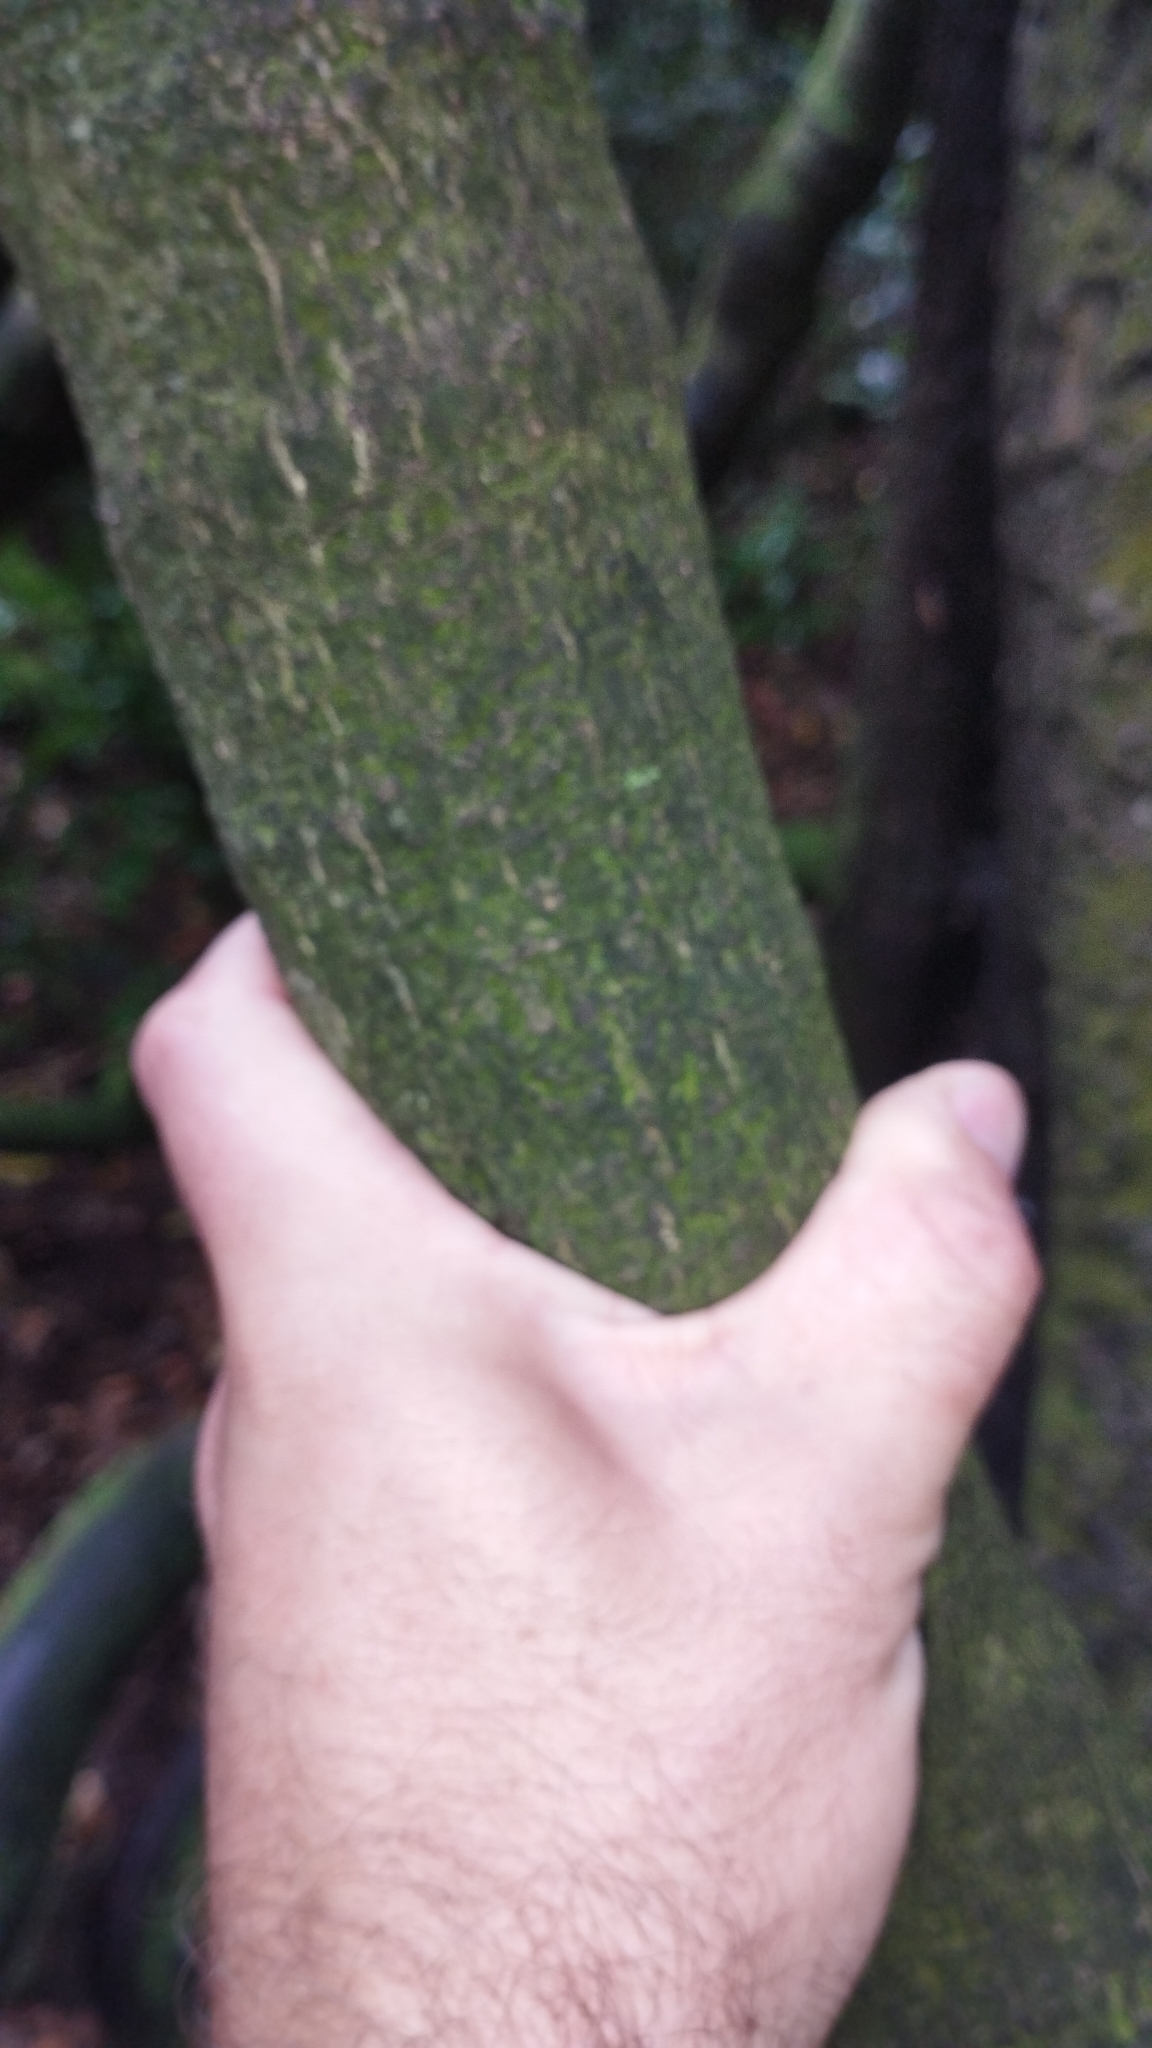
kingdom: Plantae
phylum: Tracheophyta
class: Liliopsida
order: Liliales
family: Ripogonaceae
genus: Ripogonum
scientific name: Ripogonum scandens
